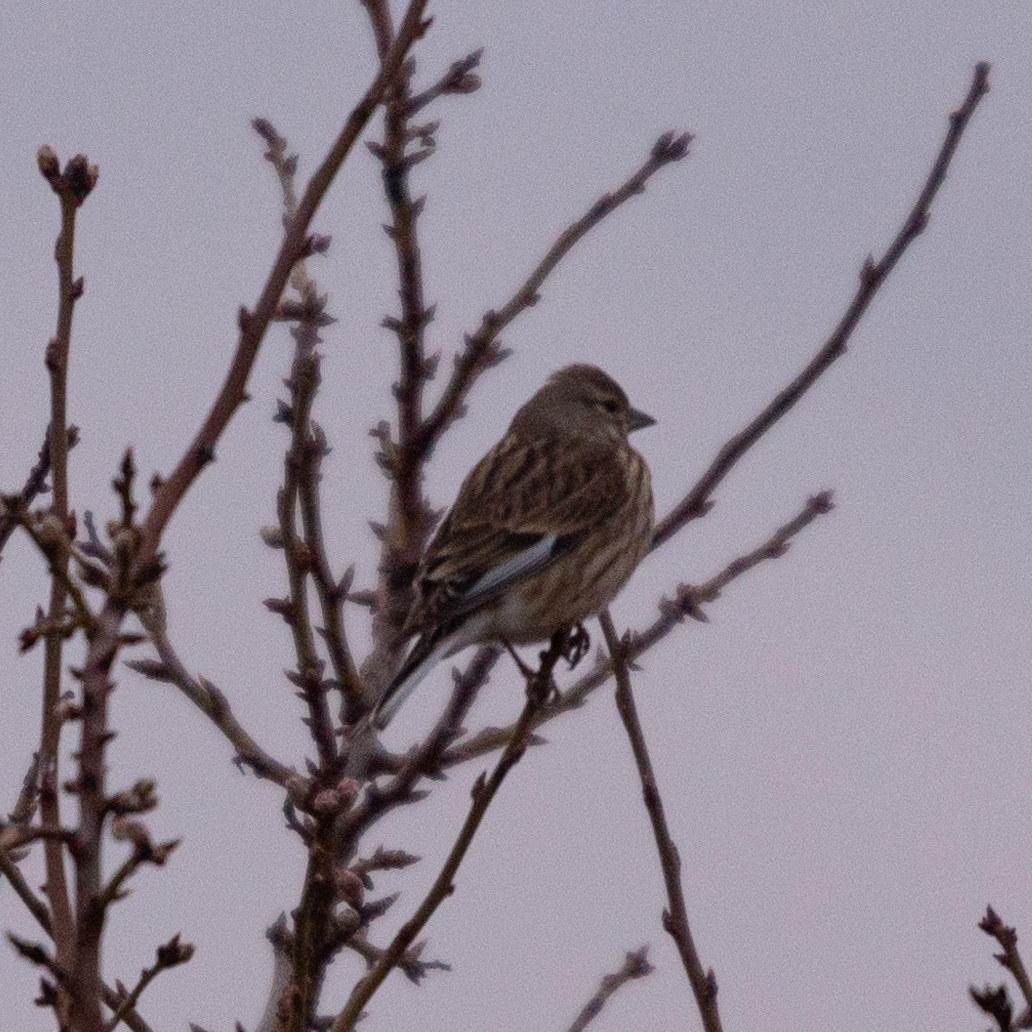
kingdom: Animalia
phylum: Chordata
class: Aves
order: Passeriformes
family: Fringillidae
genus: Linaria
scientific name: Linaria cannabina
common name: Common linnet
